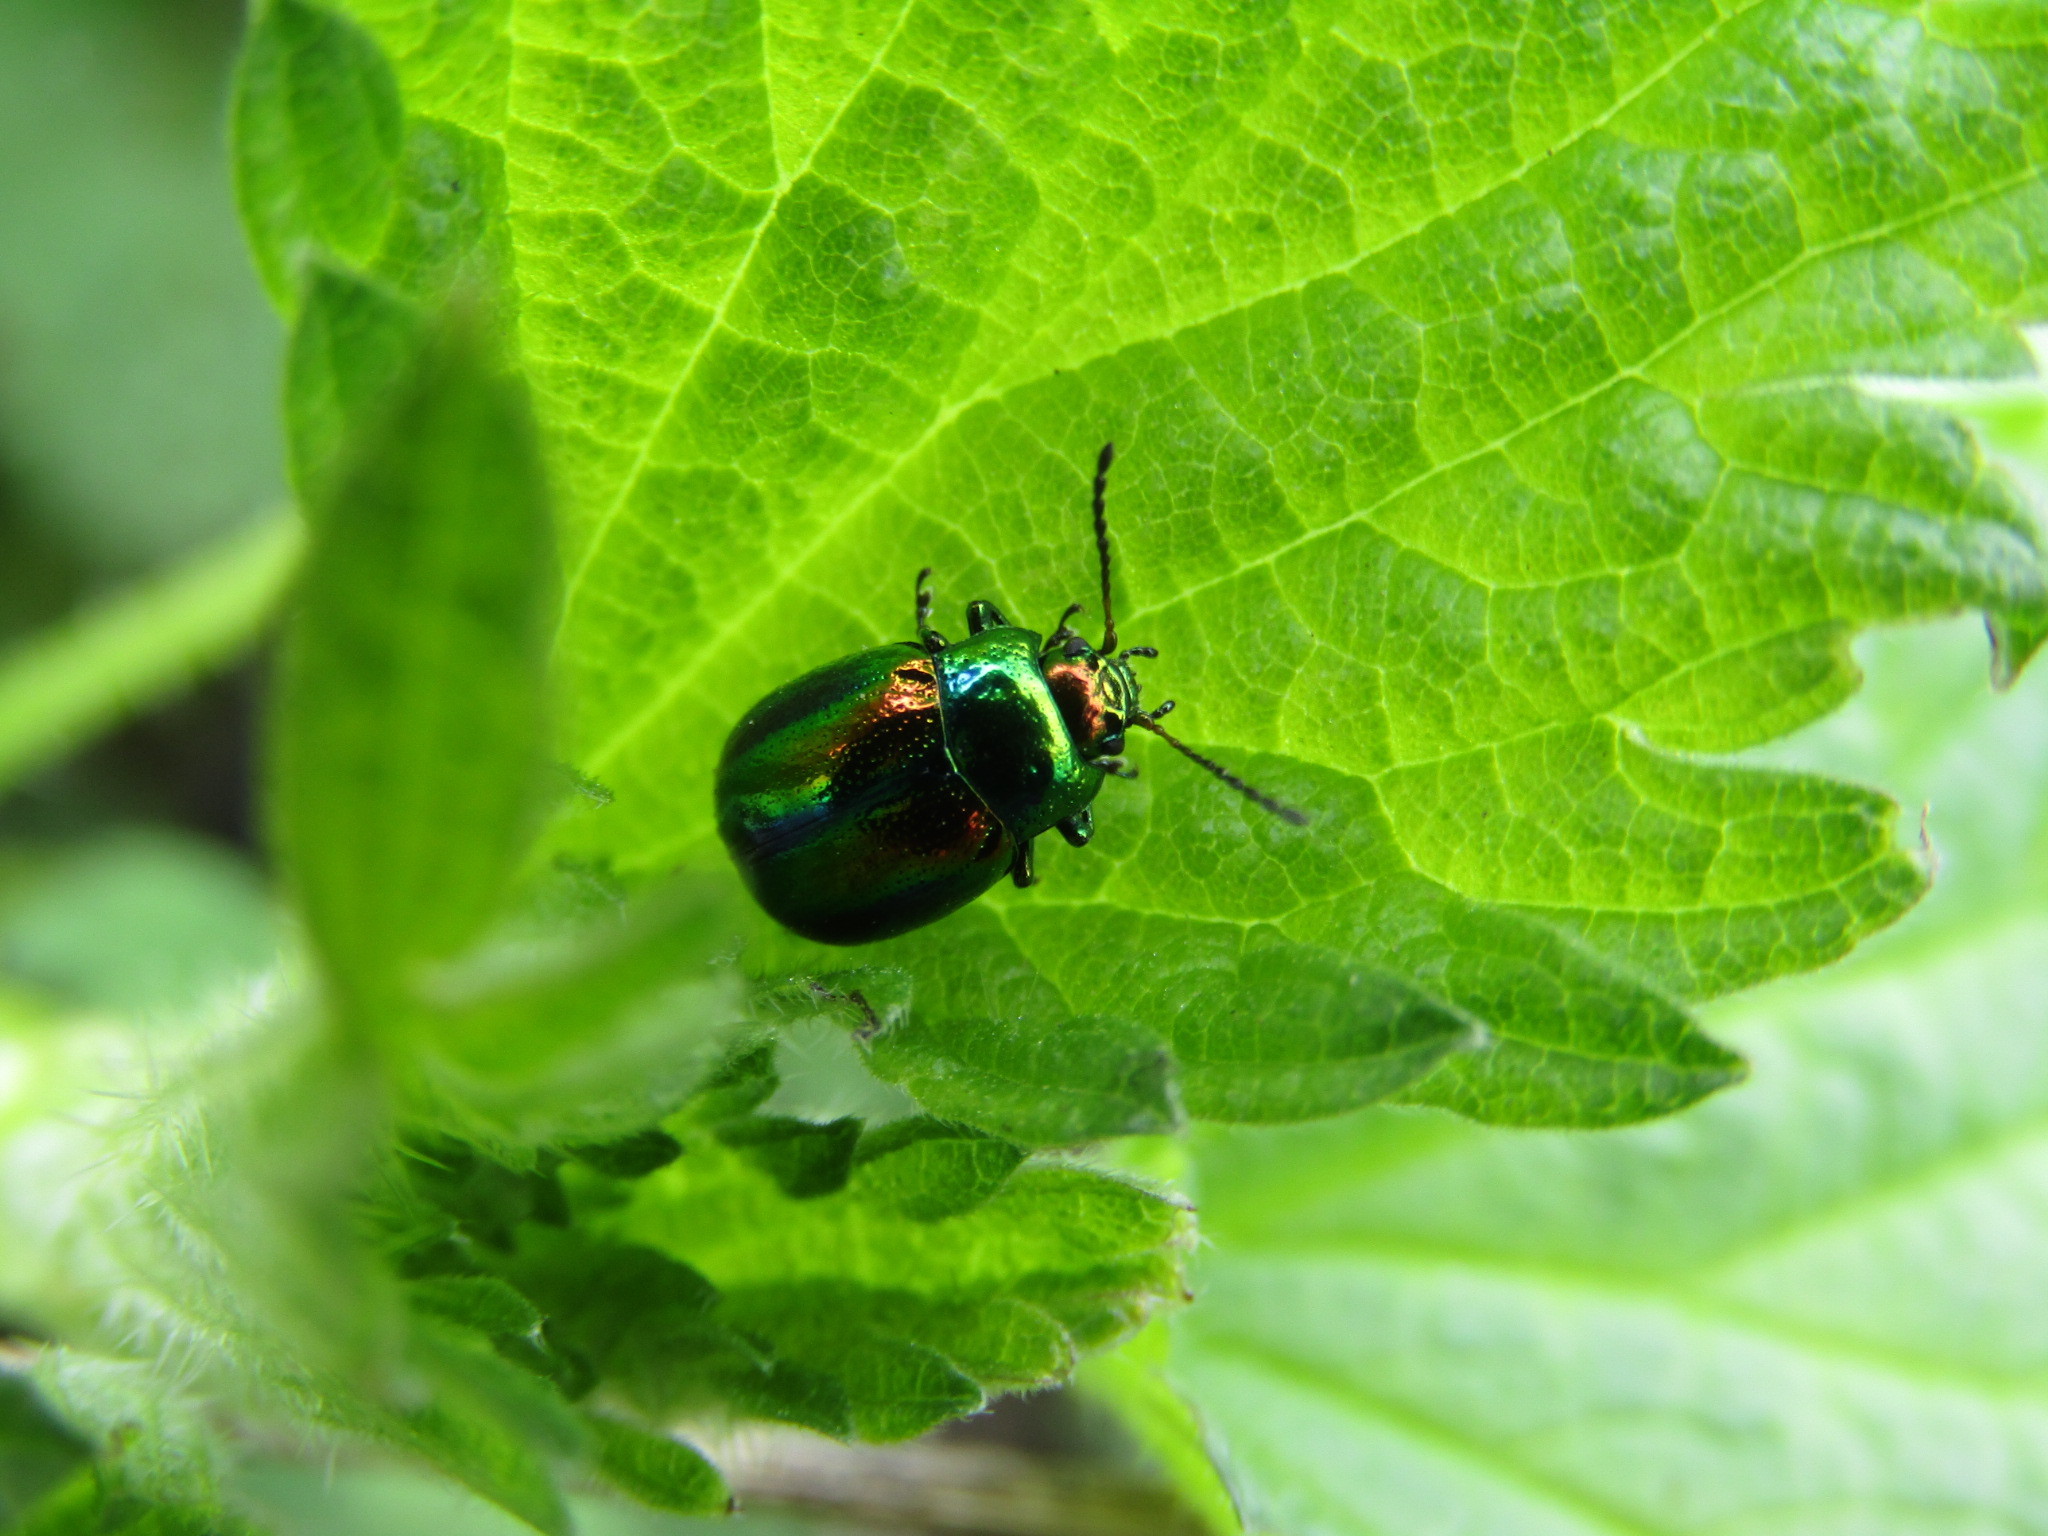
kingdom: Animalia
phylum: Arthropoda
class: Insecta
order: Coleoptera
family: Chrysomelidae
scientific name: Chrysomelidae
